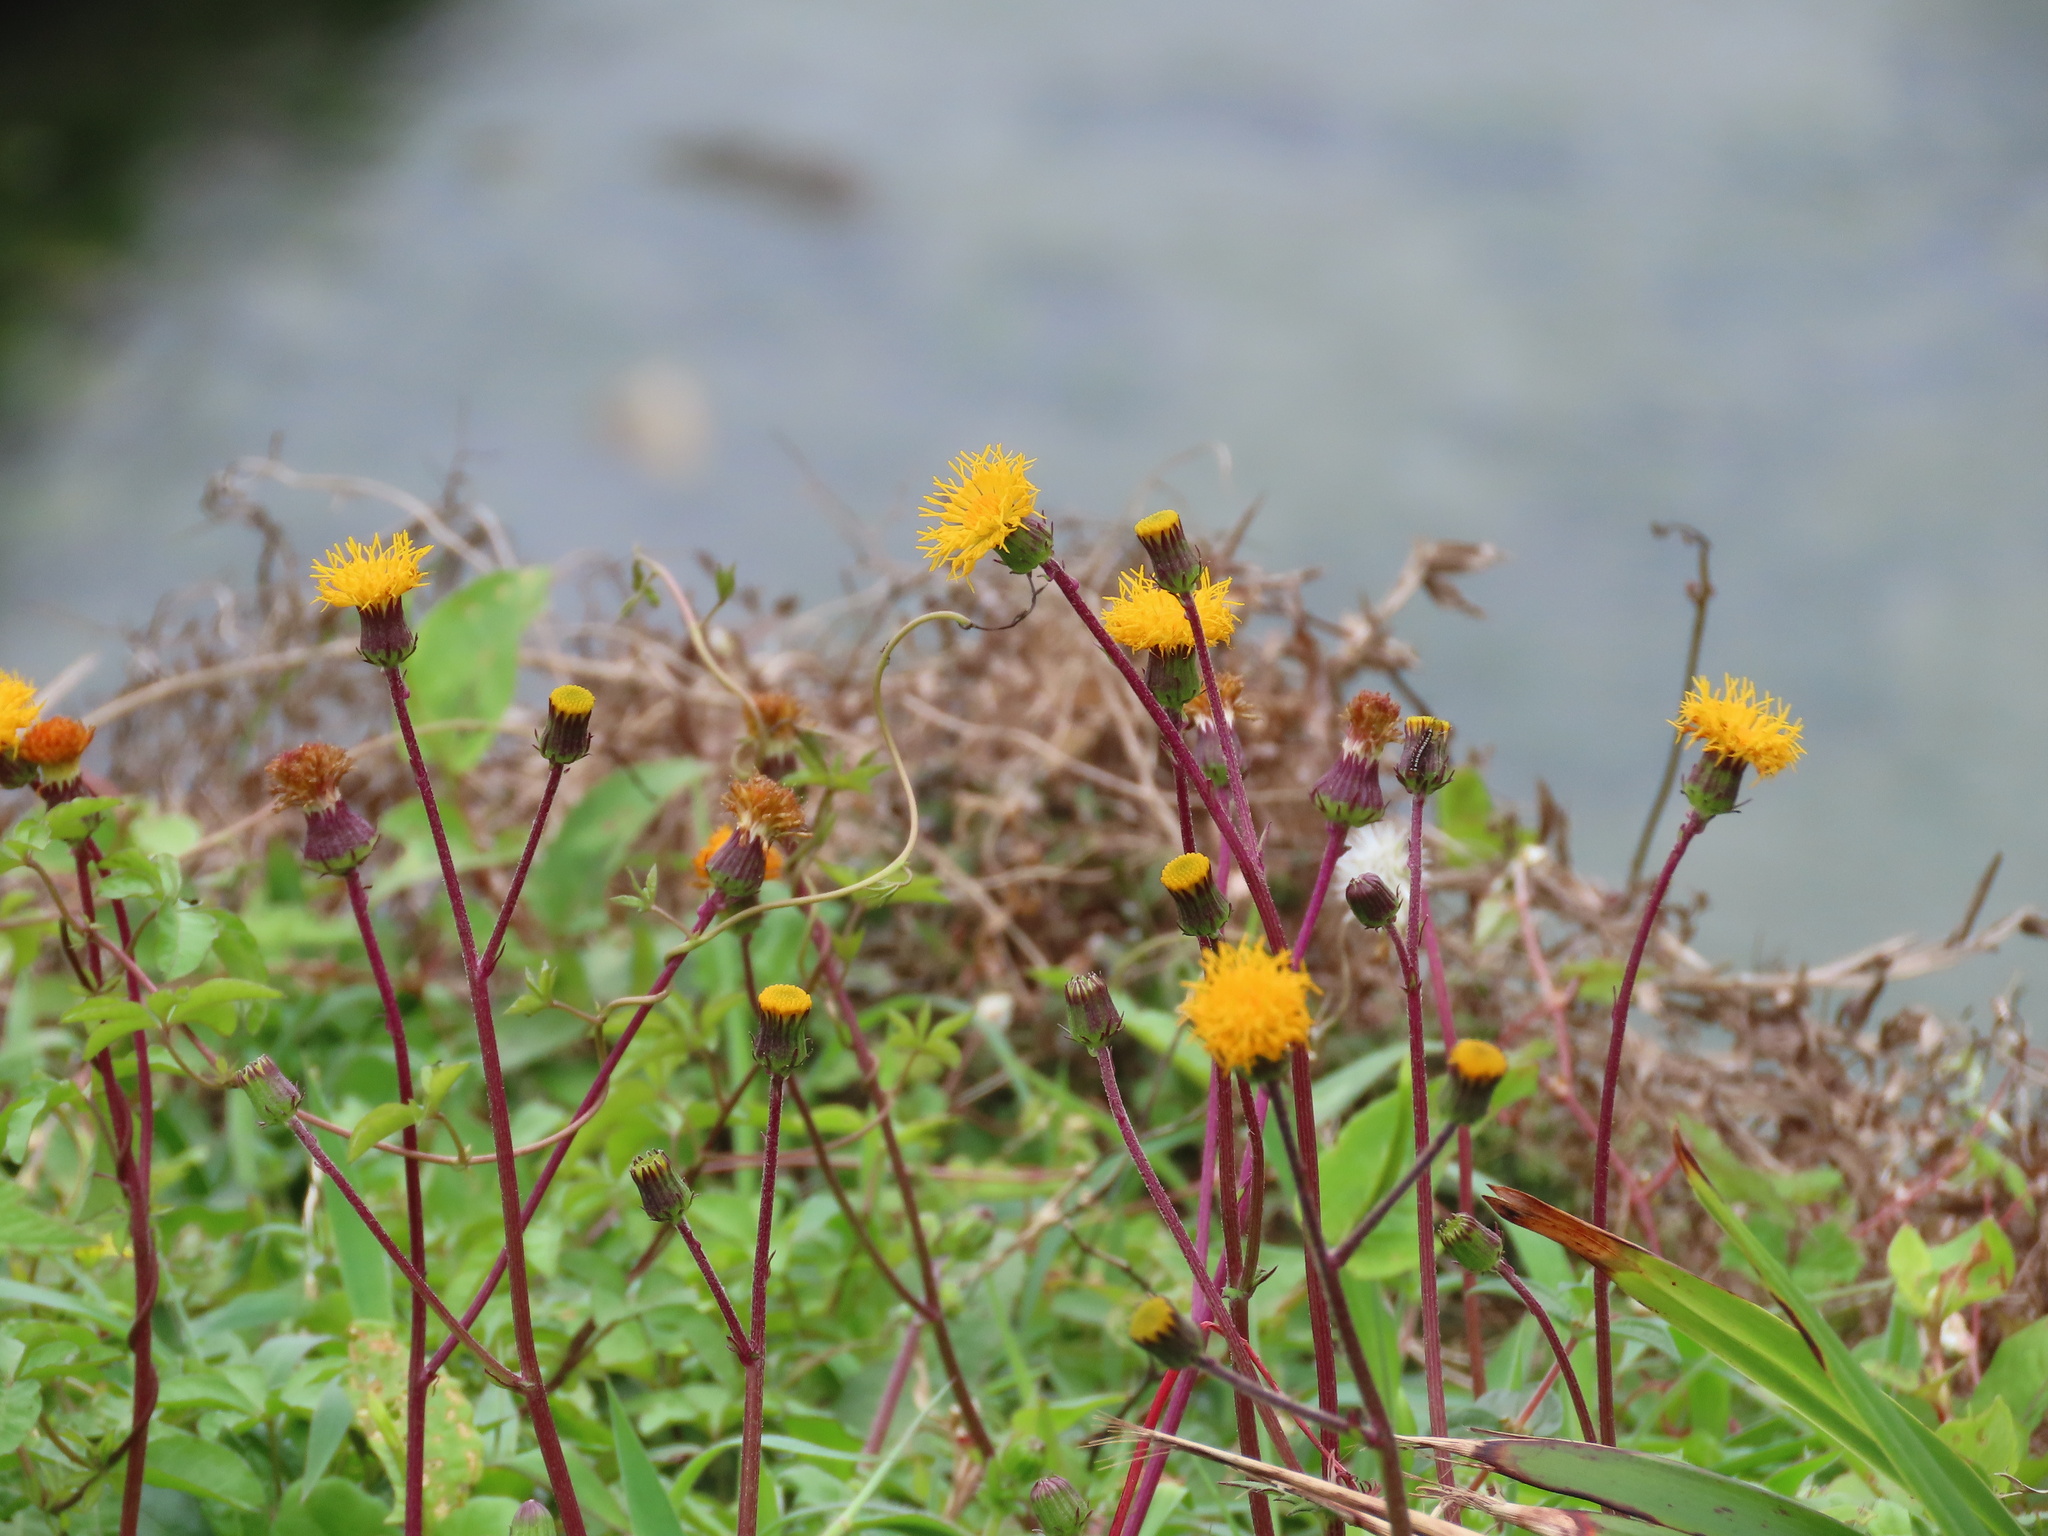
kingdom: Plantae
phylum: Tracheophyta
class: Magnoliopsida
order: Asterales
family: Asteraceae
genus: Gynura
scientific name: Gynura formosana
